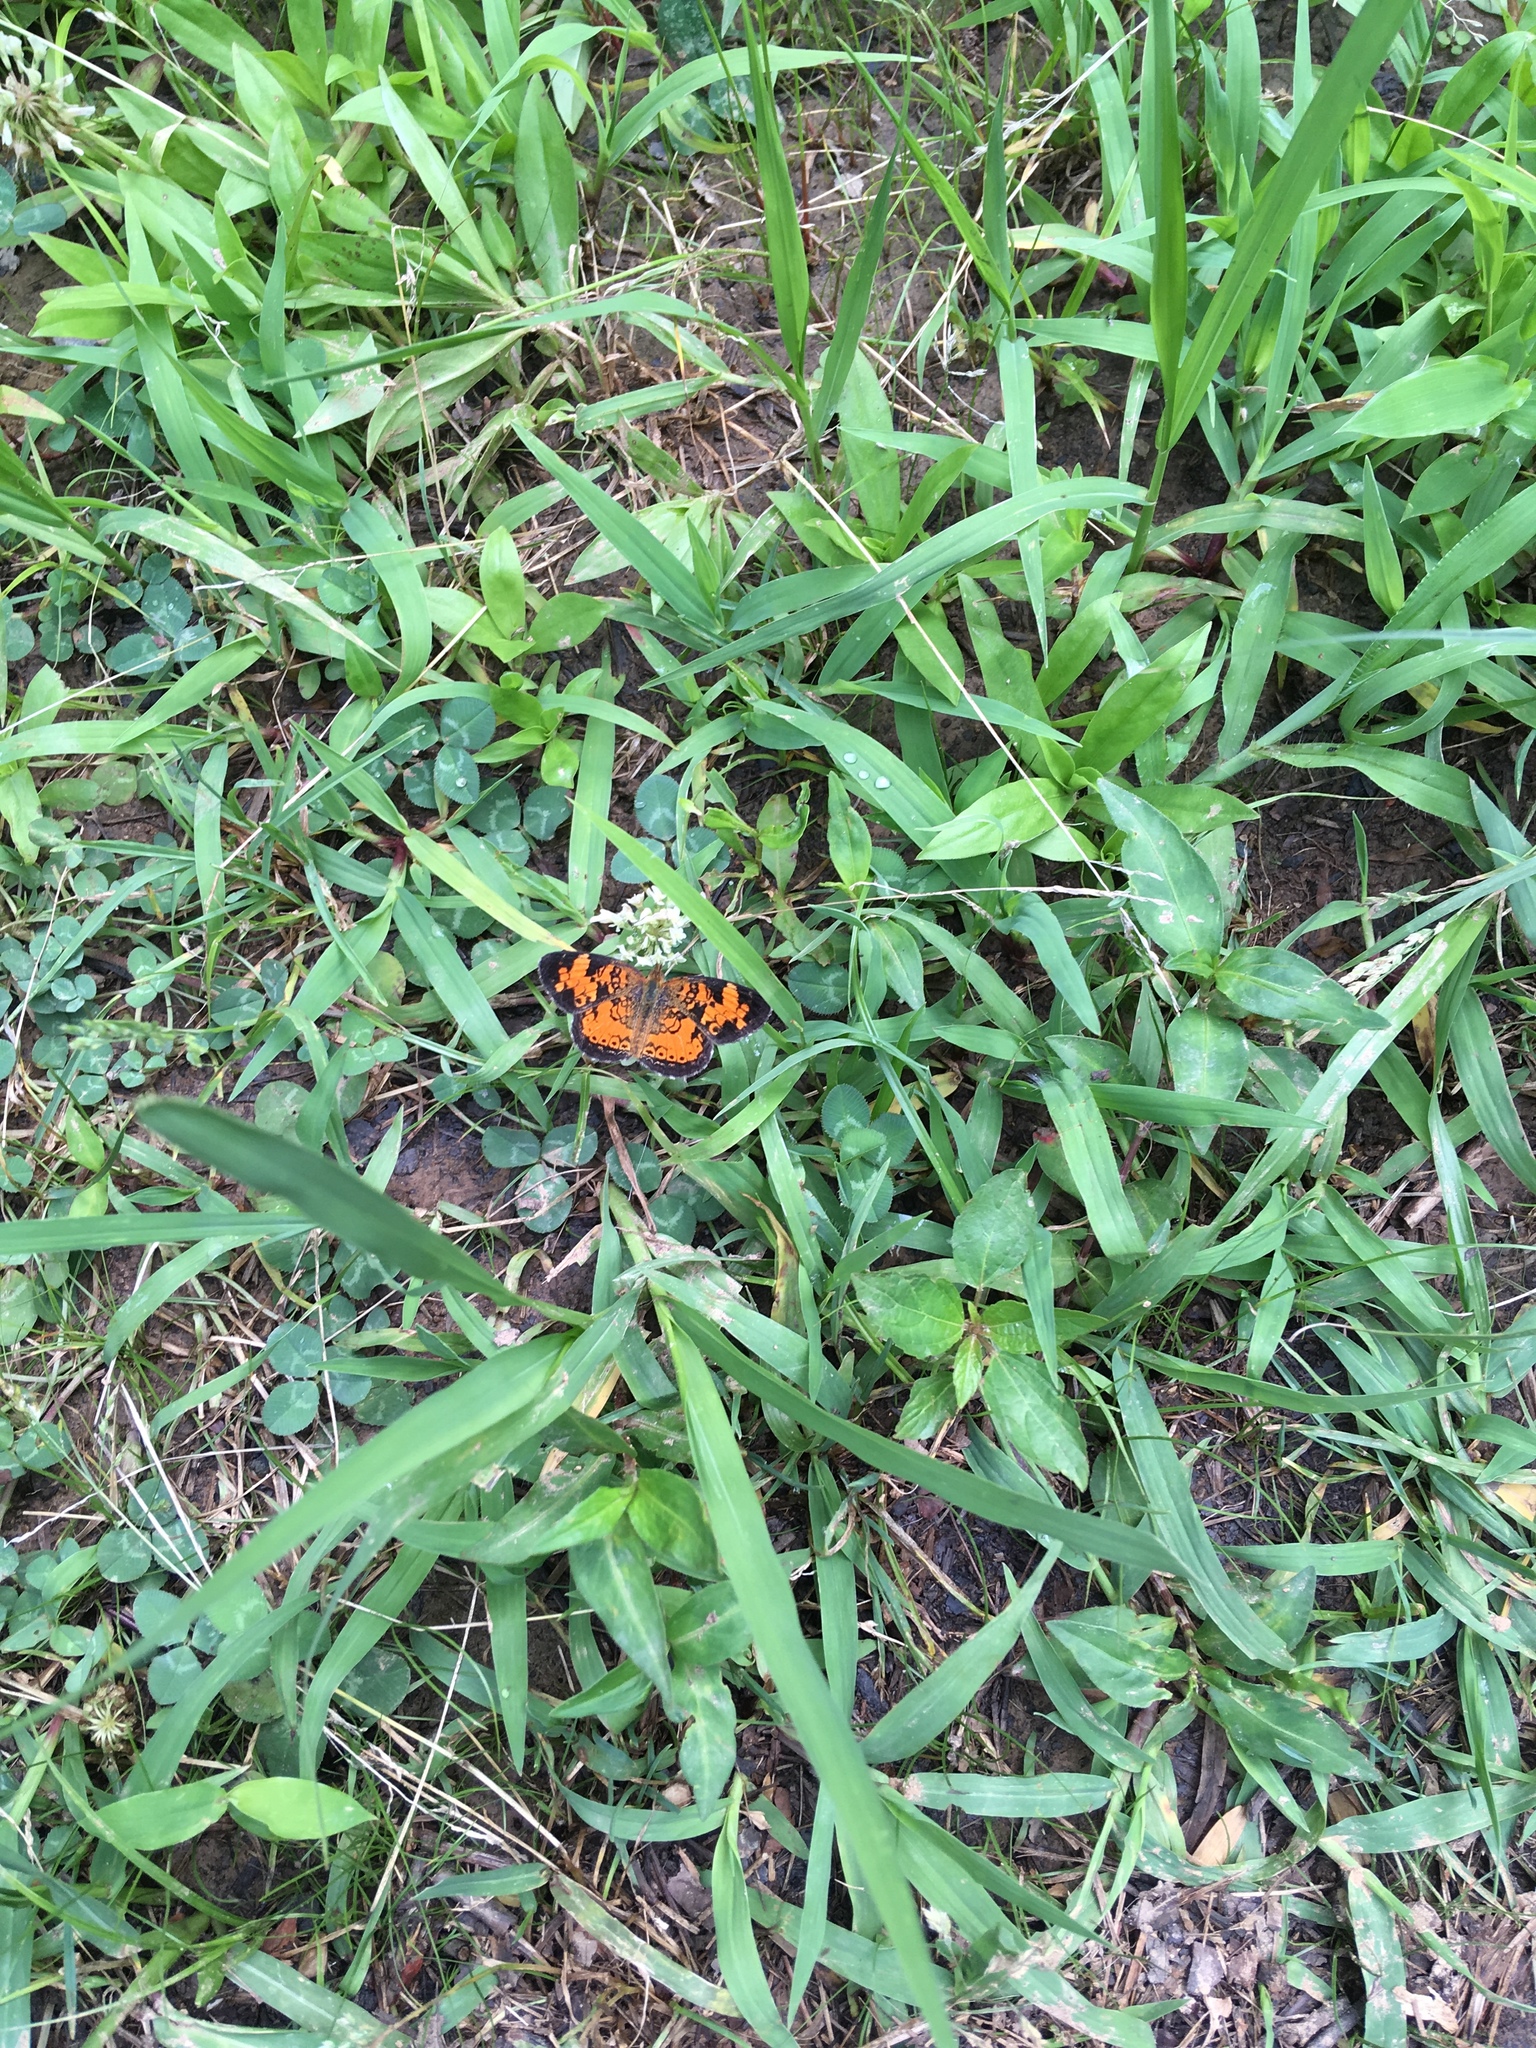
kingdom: Animalia
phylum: Arthropoda
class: Insecta
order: Lepidoptera
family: Nymphalidae
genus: Phyciodes
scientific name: Phyciodes tharos
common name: Pearl crescent
